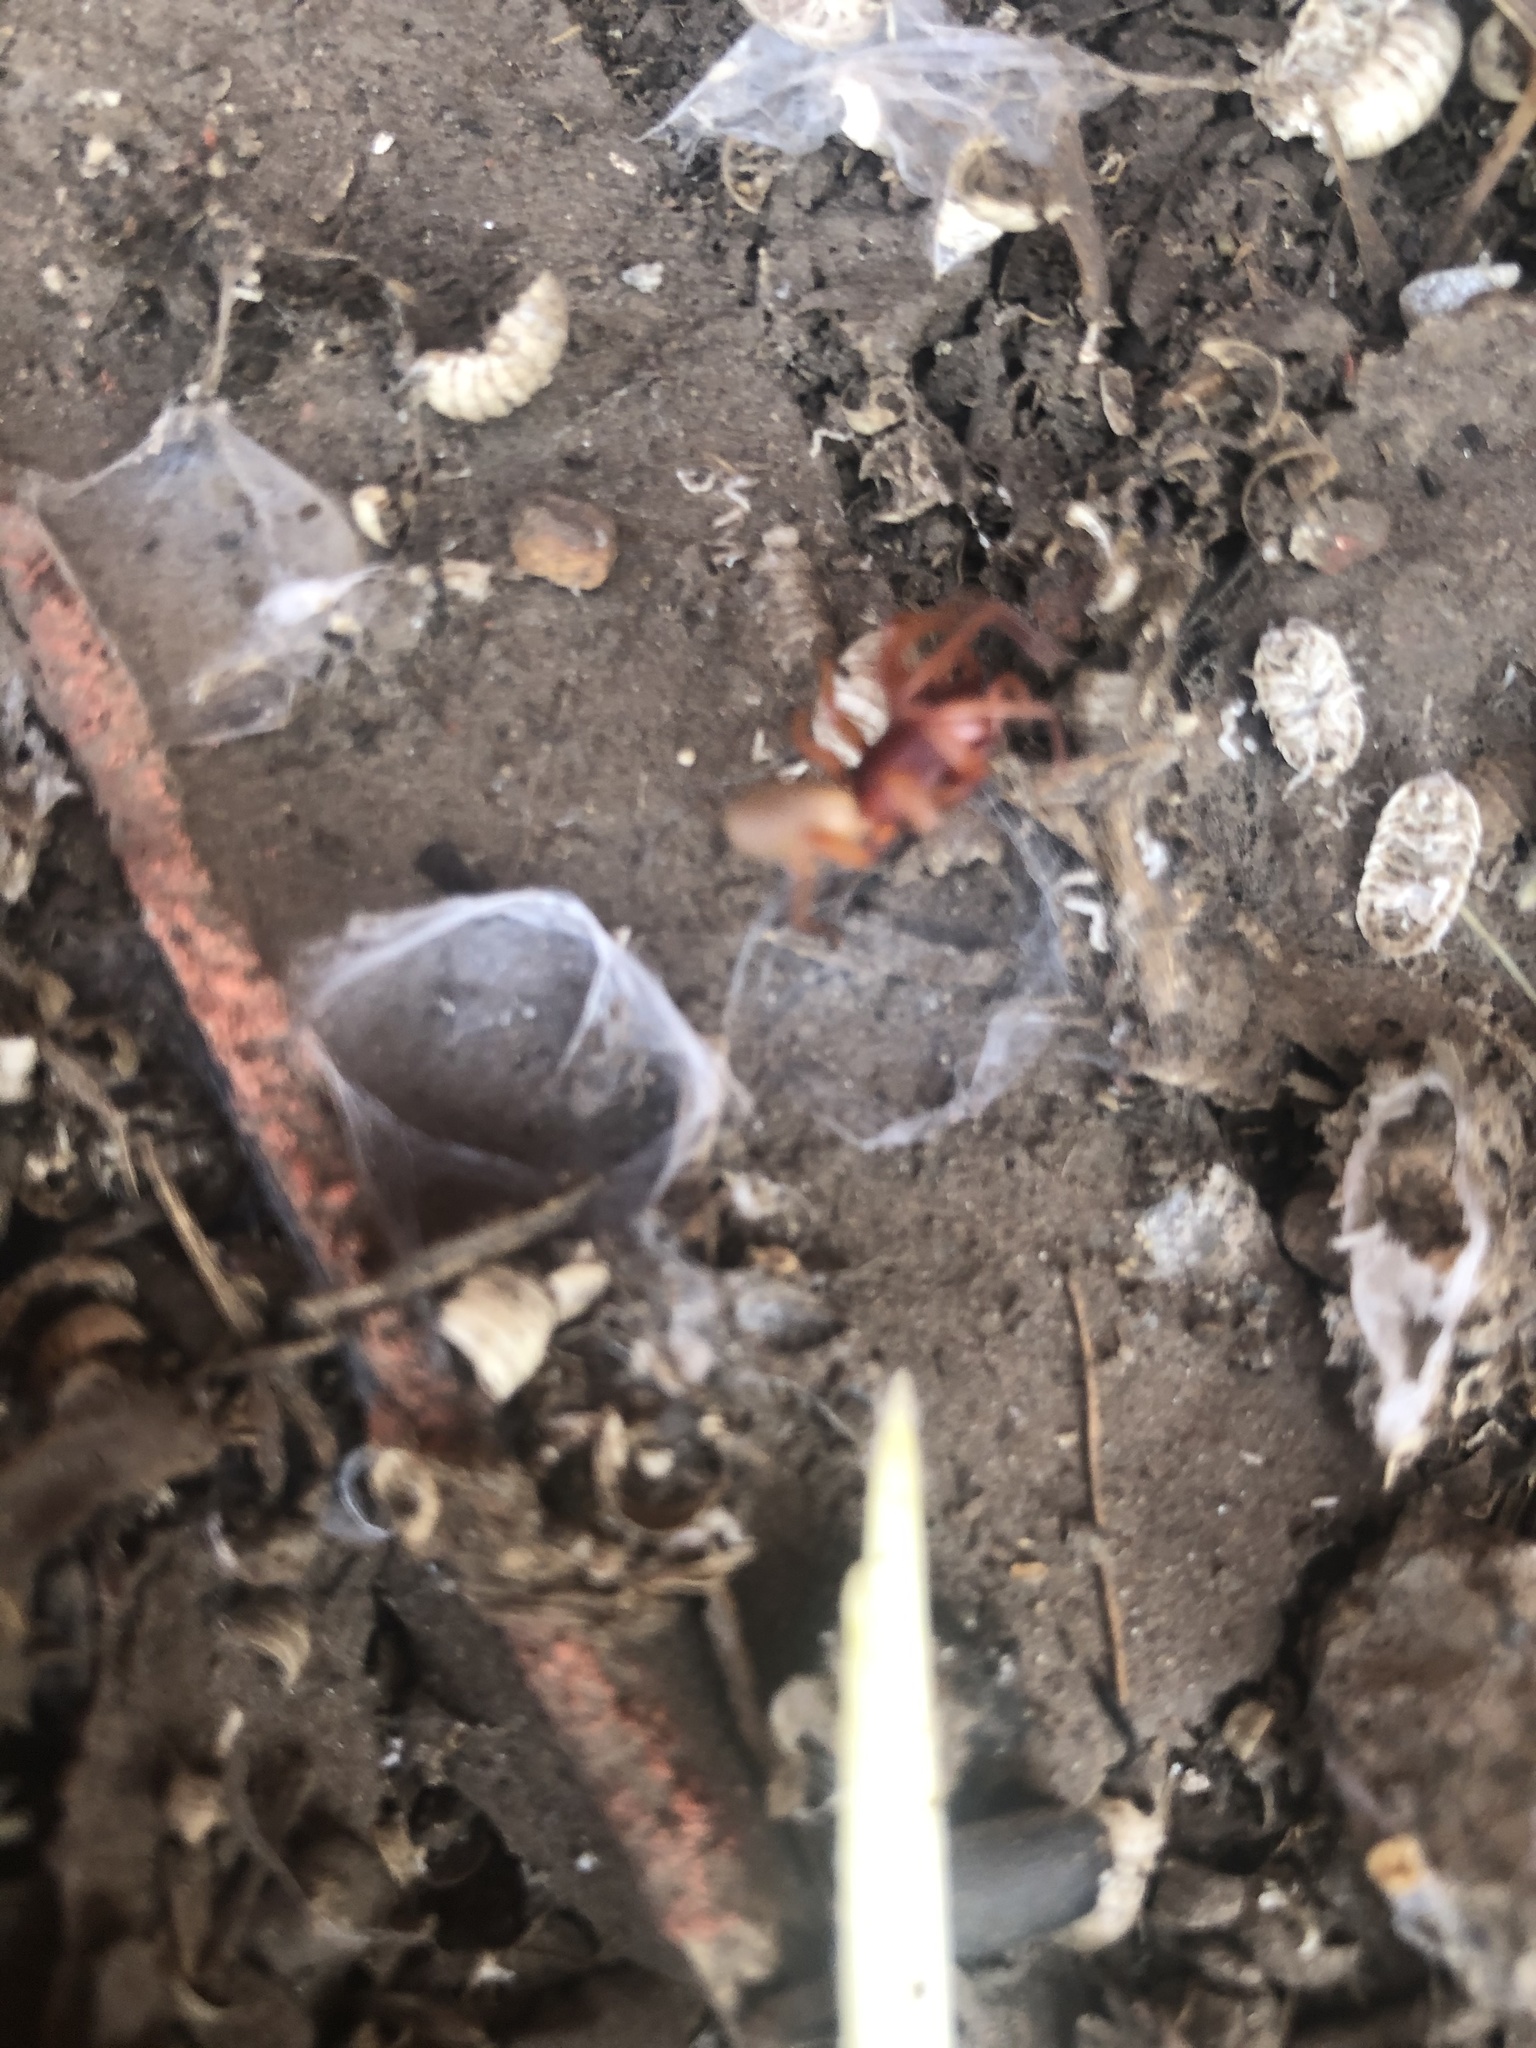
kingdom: Animalia
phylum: Arthropoda
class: Arachnida
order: Araneae
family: Dysderidae
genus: Dysdera
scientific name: Dysdera crocata
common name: Woodlouse spider
